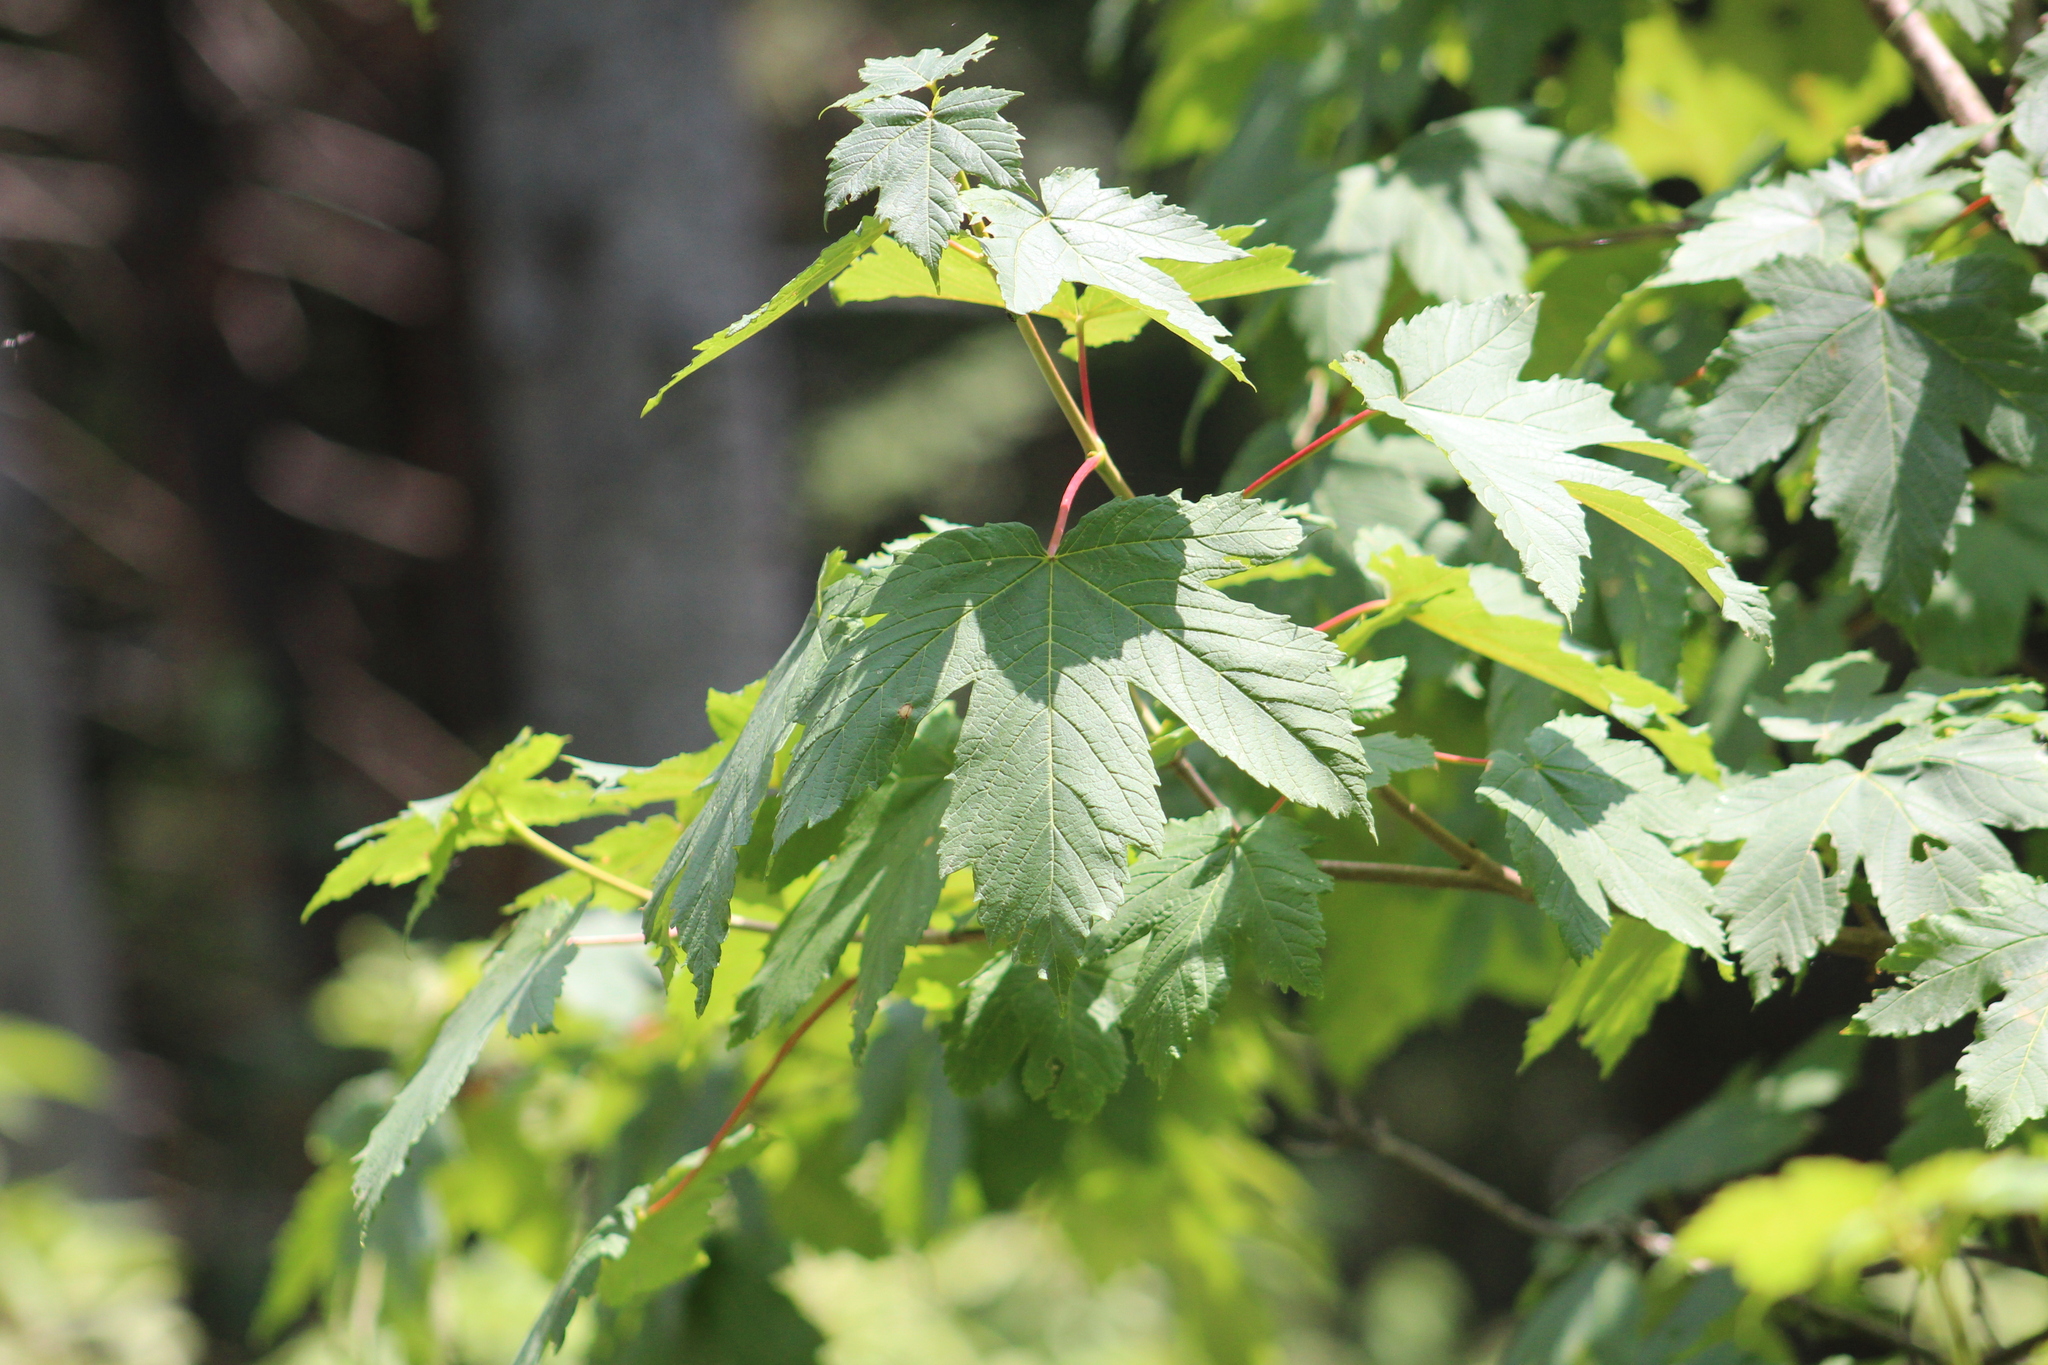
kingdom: Plantae
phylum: Tracheophyta
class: Magnoliopsida
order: Sapindales
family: Sapindaceae
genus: Acer
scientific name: Acer pseudoplatanus
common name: Sycamore
